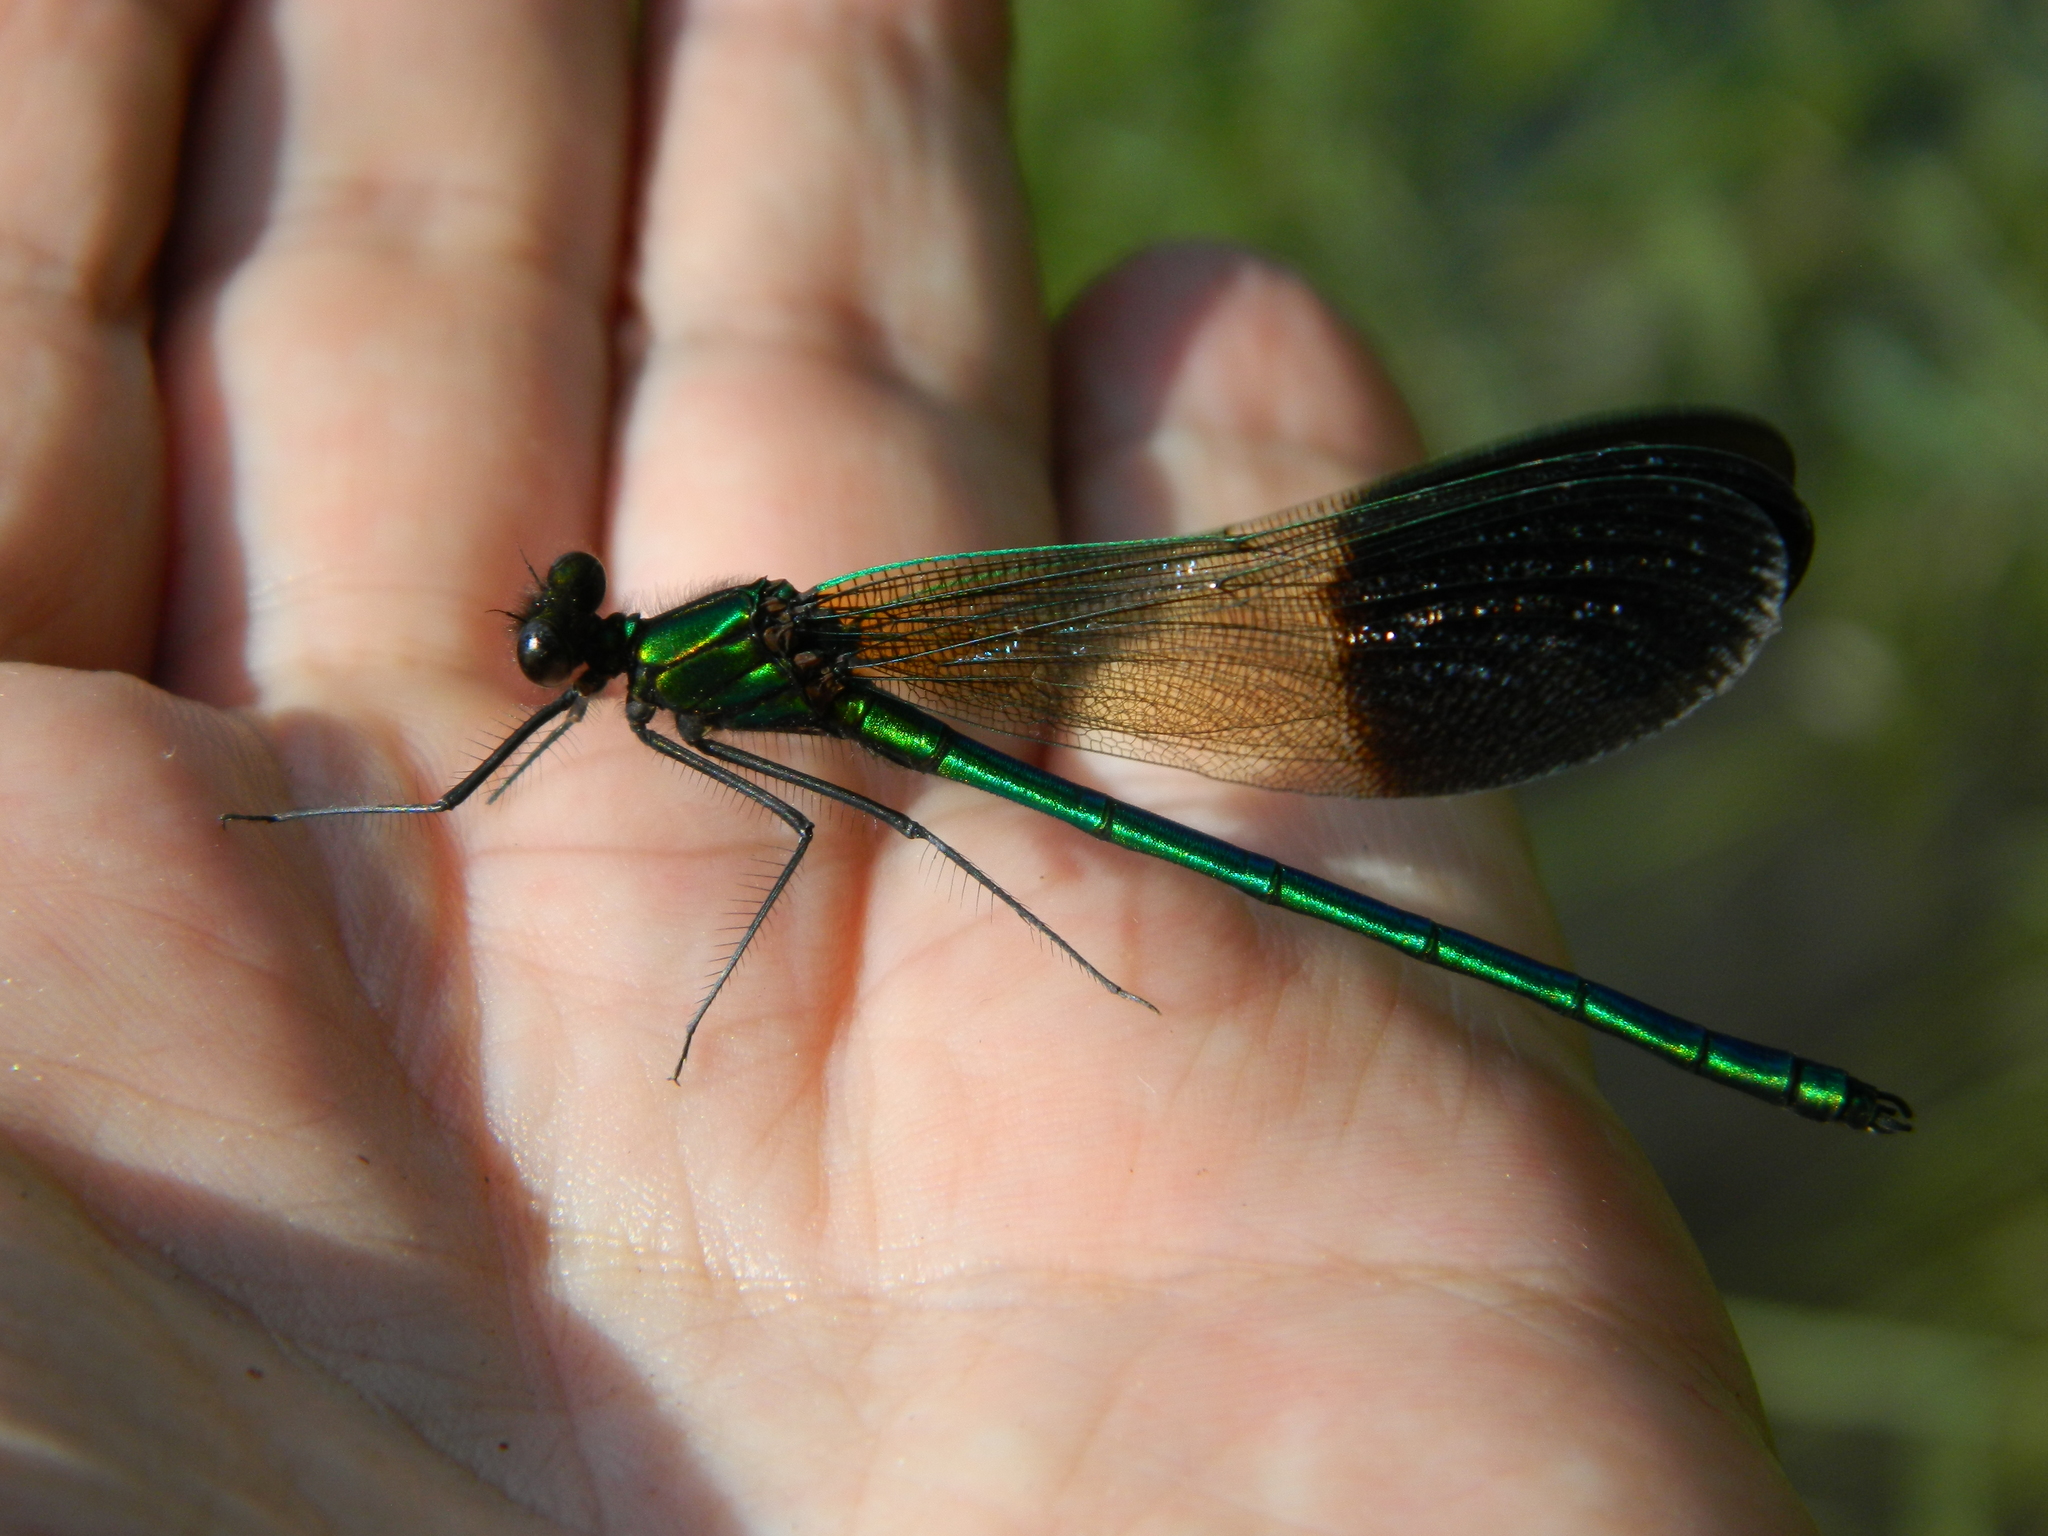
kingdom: Animalia
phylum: Arthropoda
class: Insecta
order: Odonata
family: Calopterygidae
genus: Calopteryx
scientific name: Calopteryx aequabilis
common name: River jewelwing
